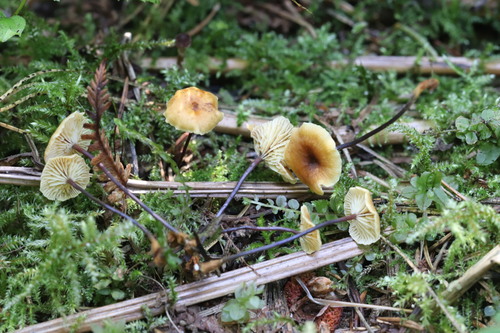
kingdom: Fungi
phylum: Basidiomycota
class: Agaricomycetes
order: Agaricales
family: Mycenaceae
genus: Xeromphalina
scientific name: Xeromphalina cornui
